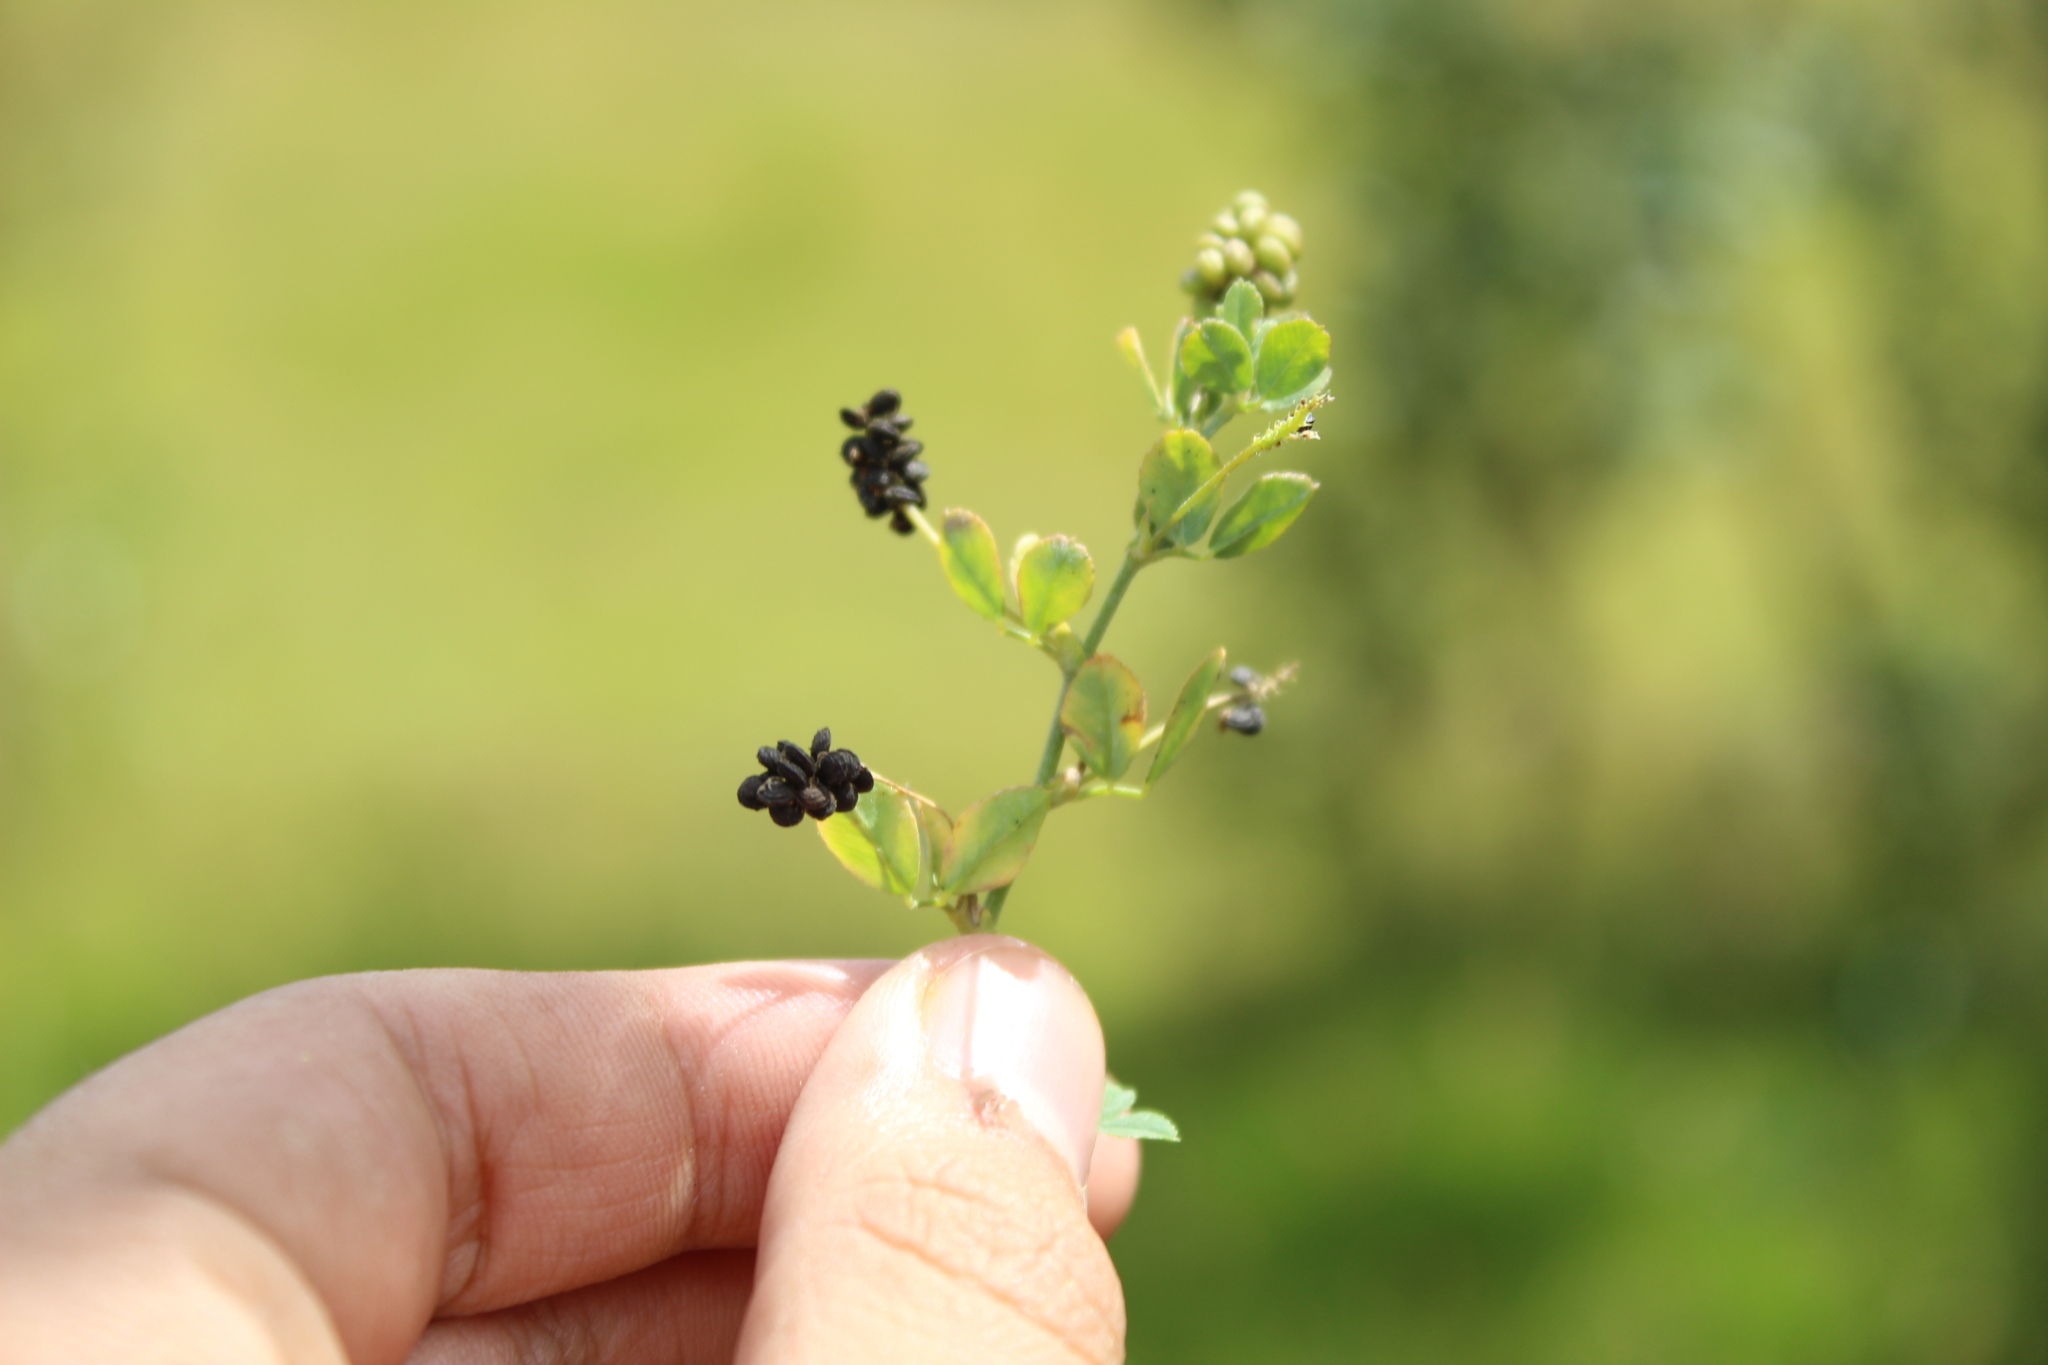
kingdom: Plantae
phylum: Tracheophyta
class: Magnoliopsida
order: Fabales
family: Fabaceae
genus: Medicago
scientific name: Medicago lupulina
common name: Black medick
